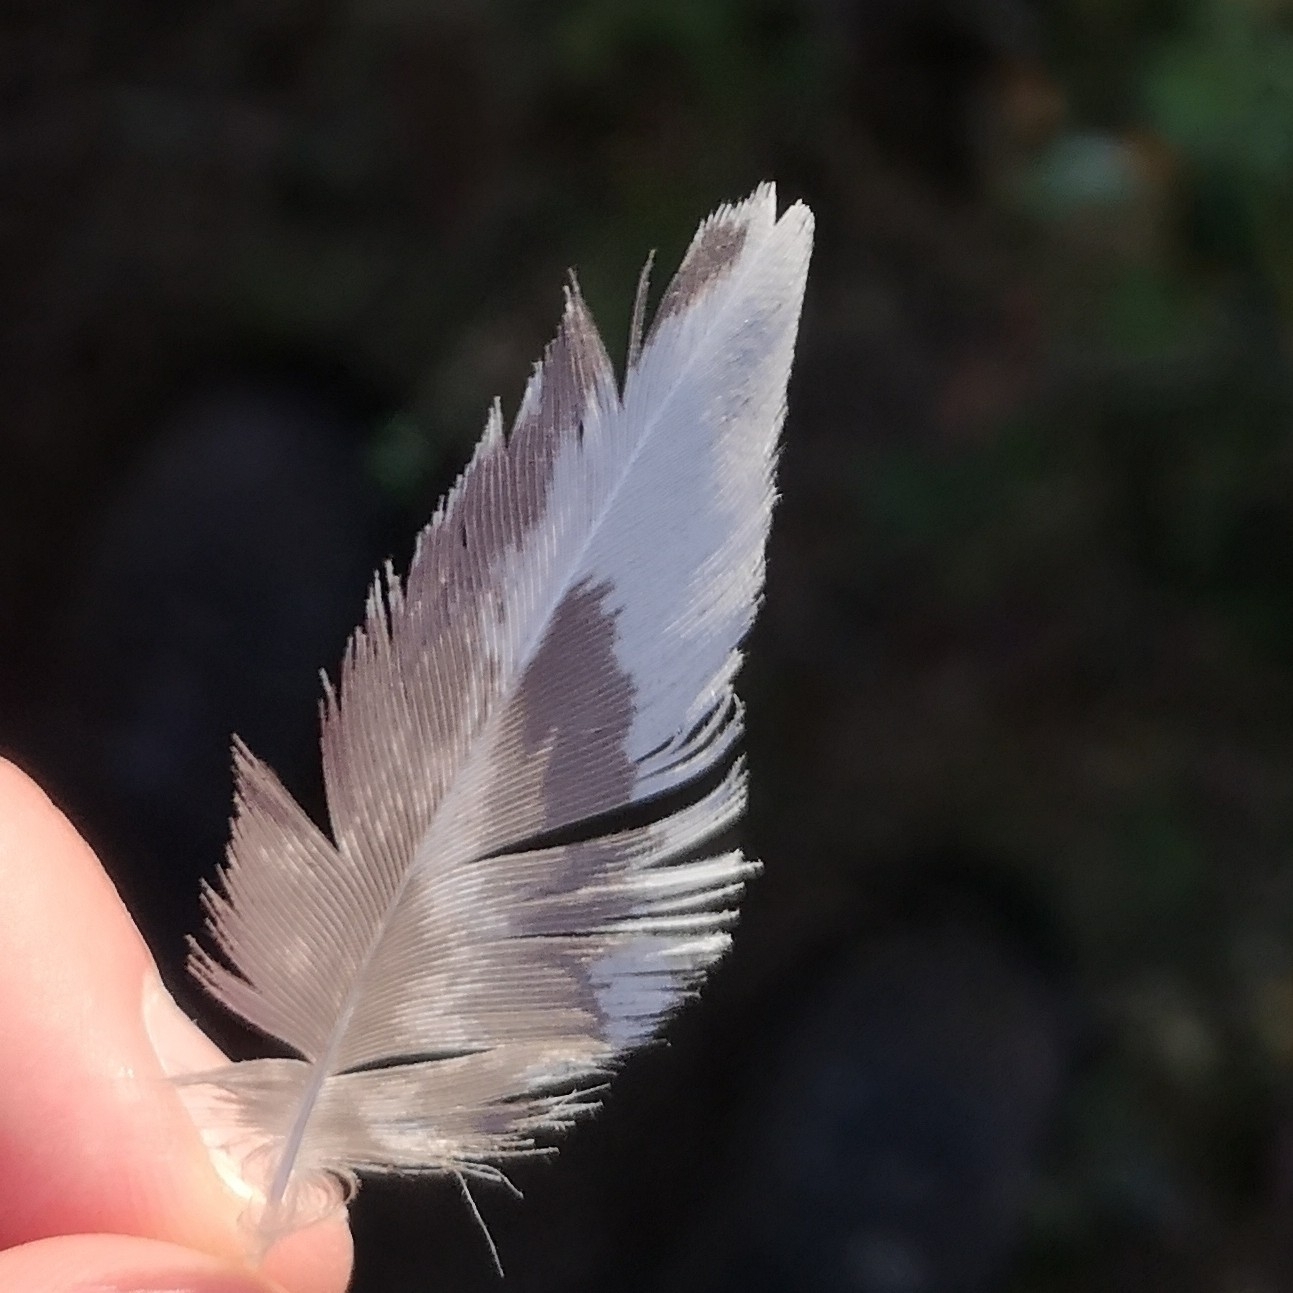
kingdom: Animalia
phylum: Chordata
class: Aves
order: Galliformes
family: Phasianidae
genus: Tetrao
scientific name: Tetrao urogallus
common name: Western capercaillie
